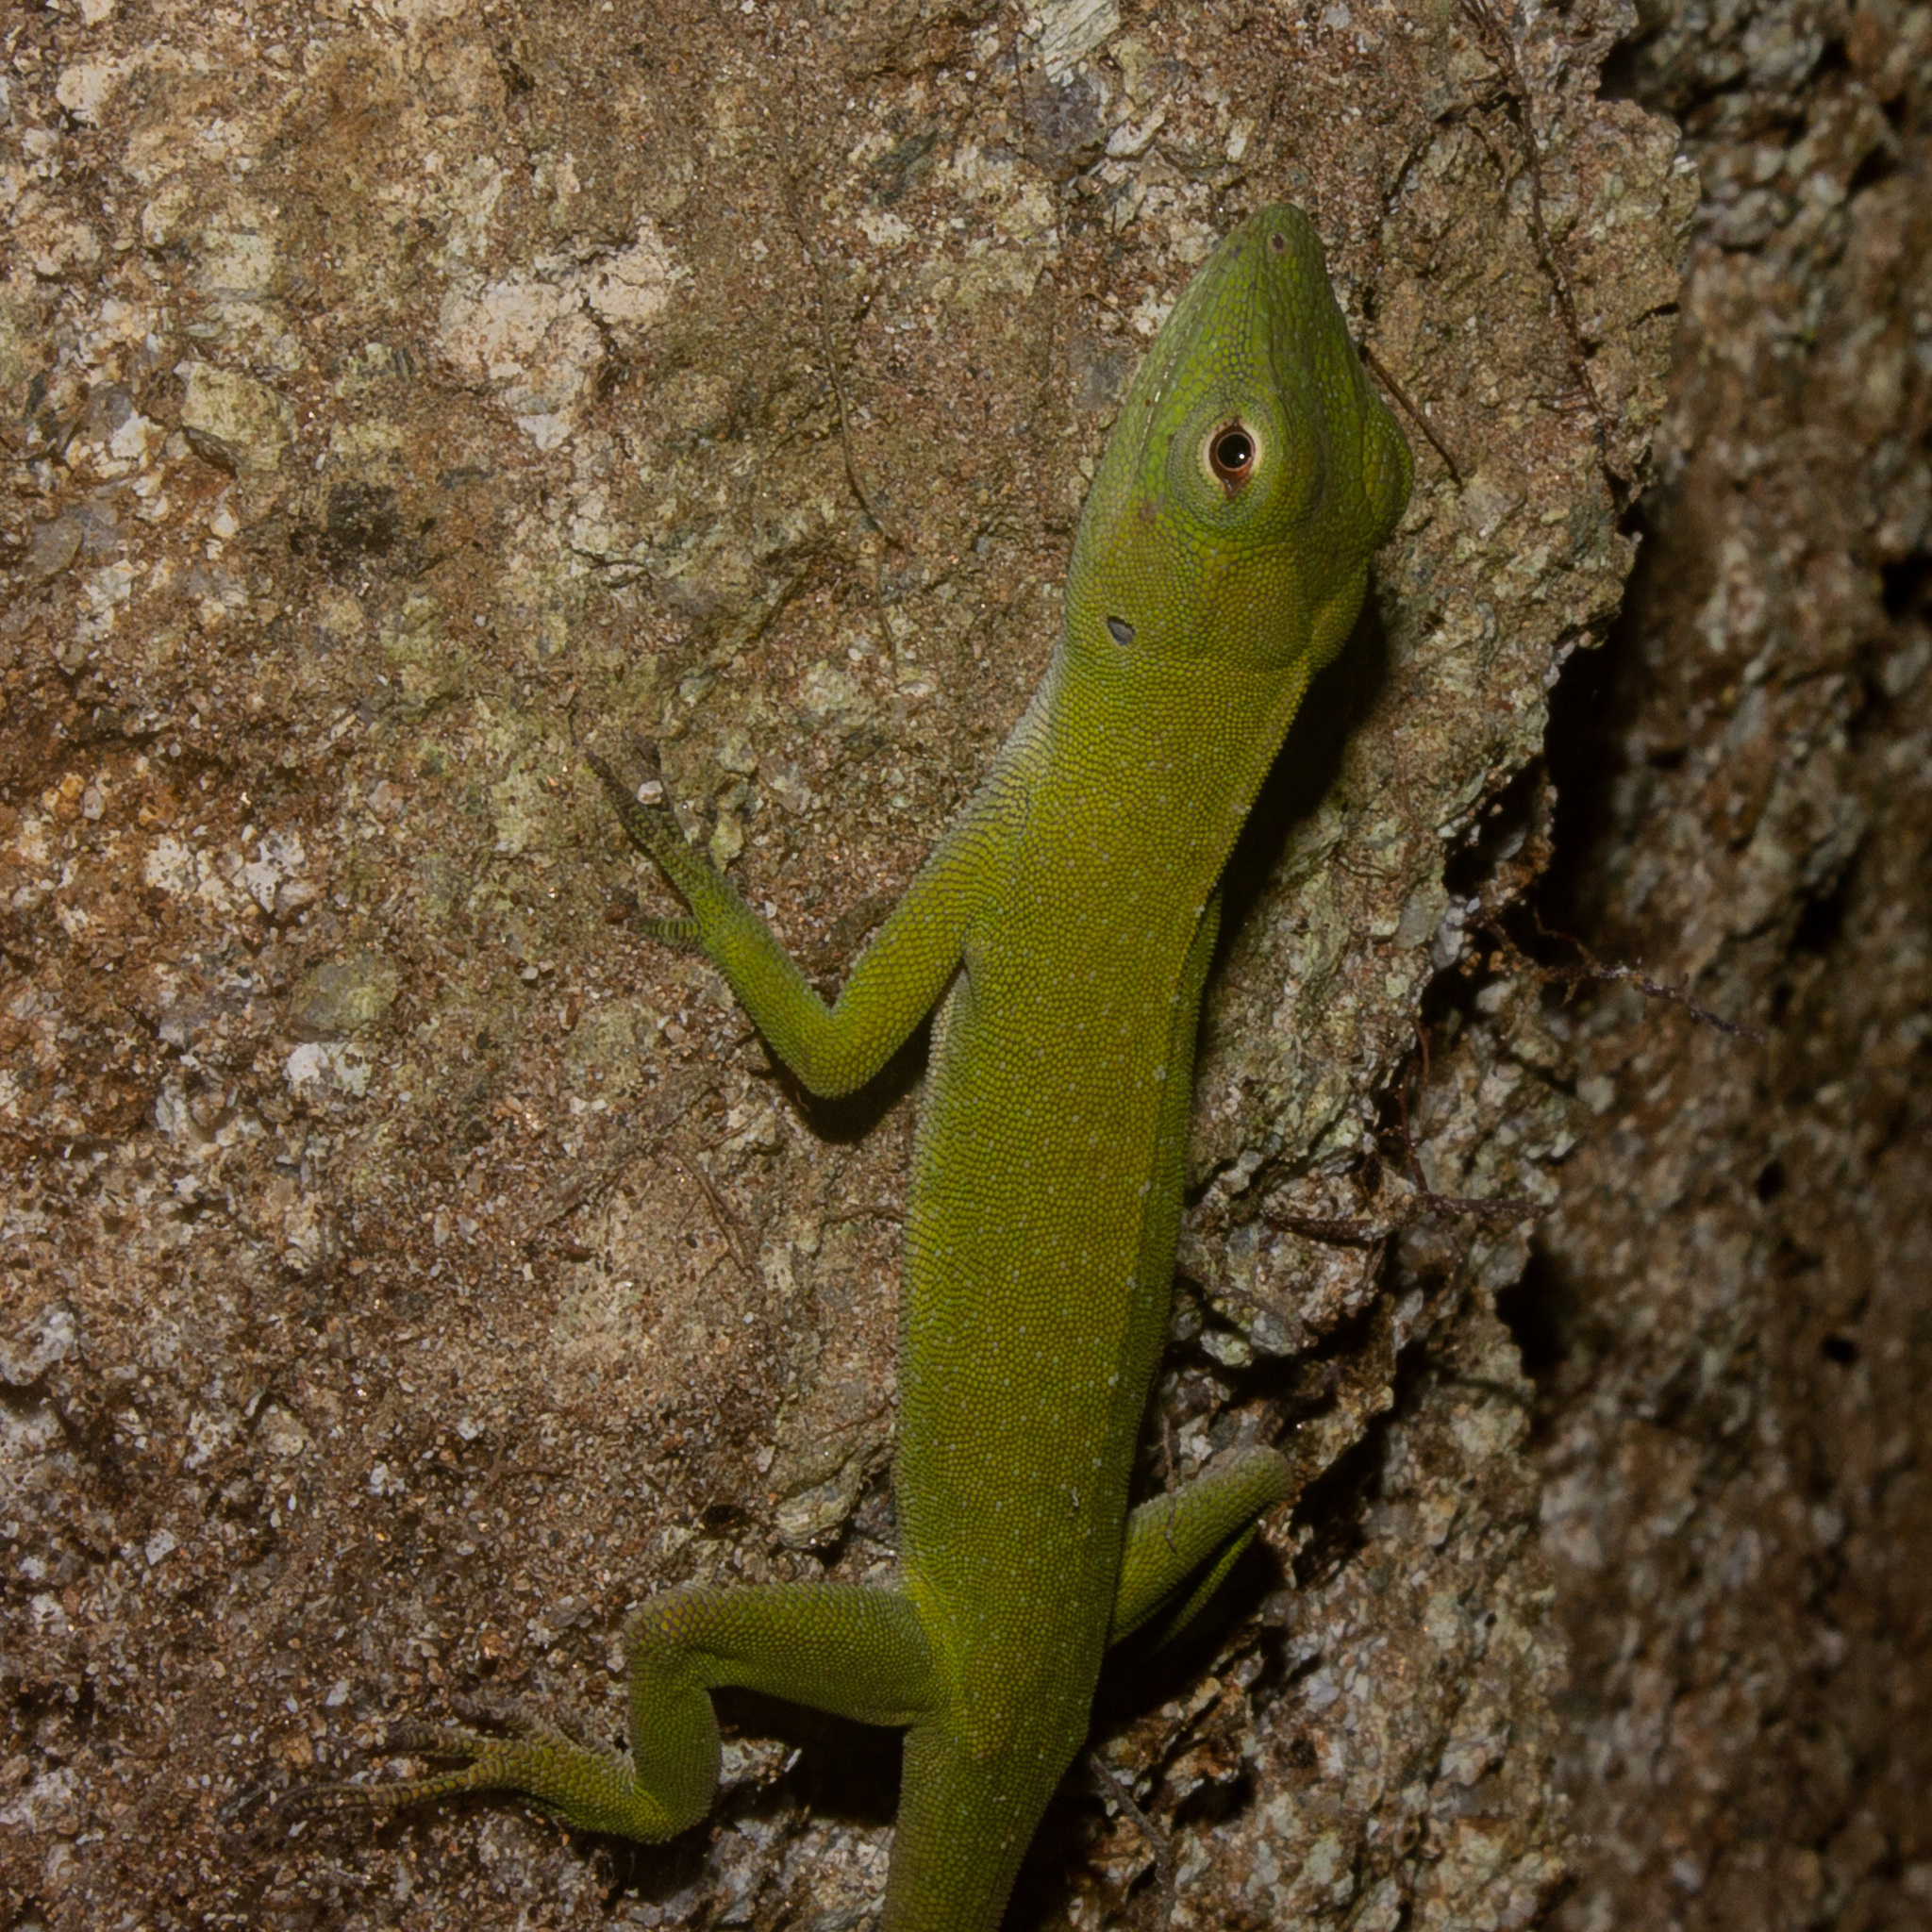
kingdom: Animalia
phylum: Chordata
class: Squamata
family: Dactyloidae
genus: Anolis
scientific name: Anolis biporcatus
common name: Giant green anole
